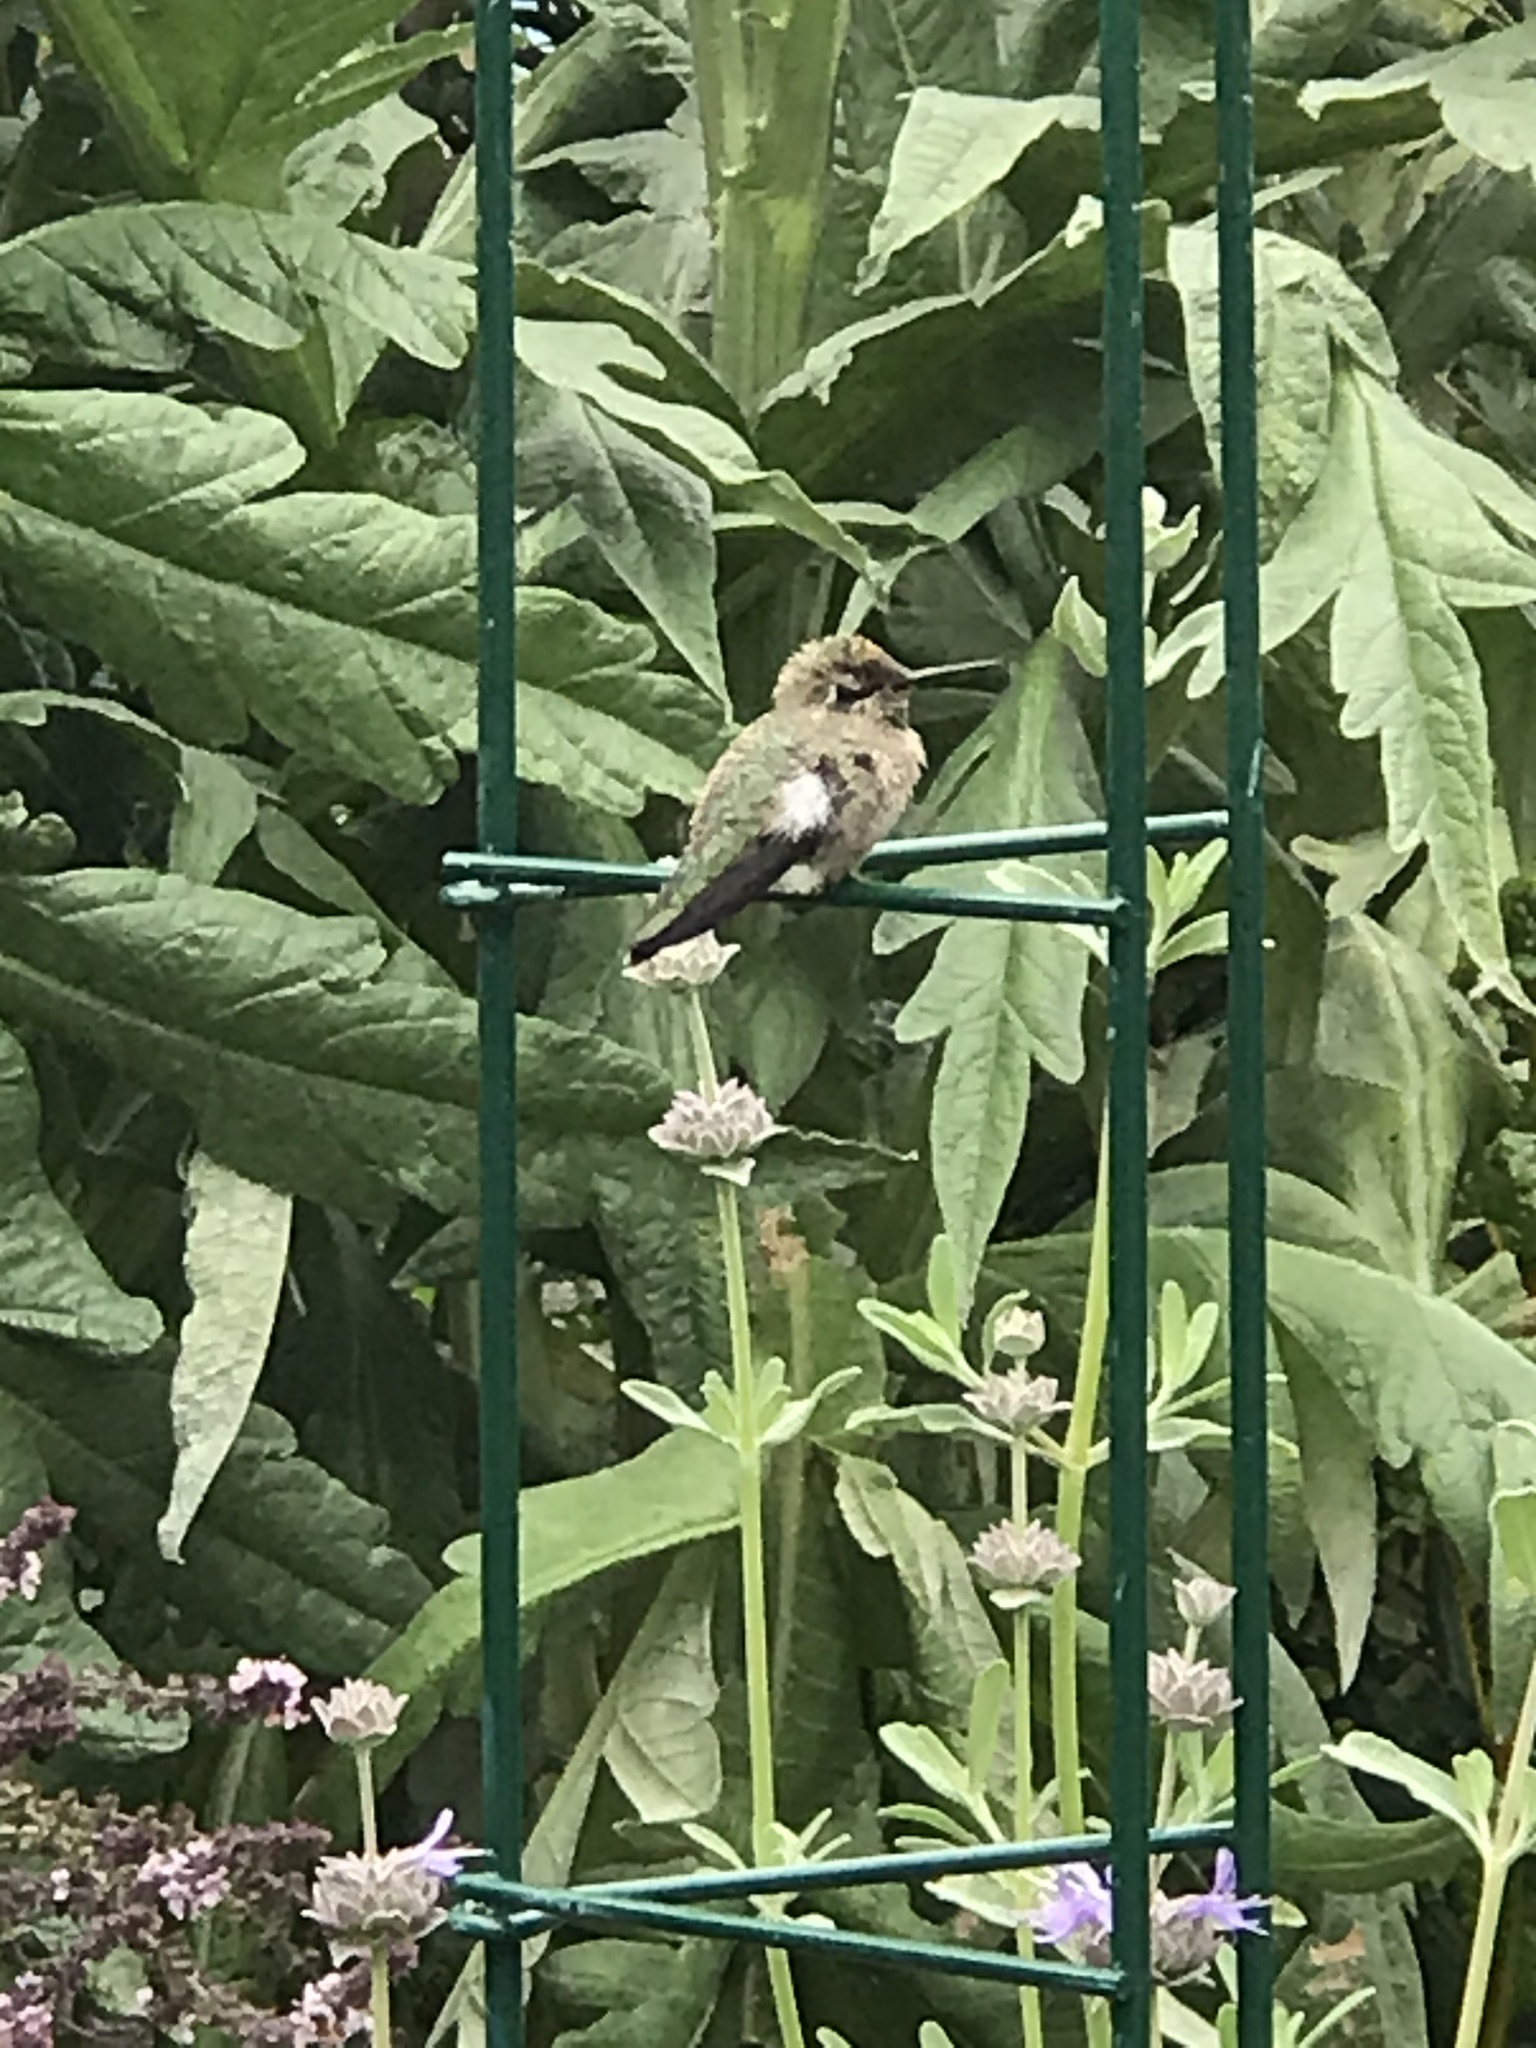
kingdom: Animalia
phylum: Chordata
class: Aves
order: Apodiformes
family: Trochilidae
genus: Calypte
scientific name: Calypte anna
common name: Anna's hummingbird
